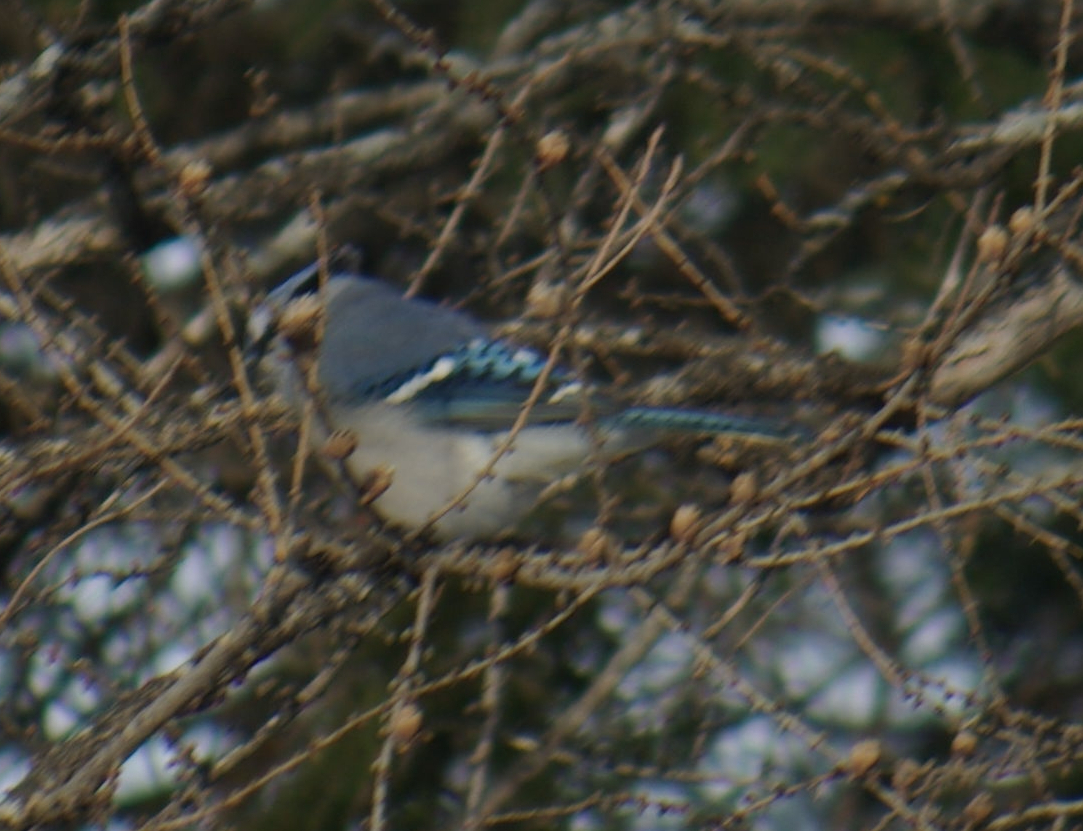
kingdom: Animalia
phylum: Chordata
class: Aves
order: Passeriformes
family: Corvidae
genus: Cyanocitta
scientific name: Cyanocitta cristata
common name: Blue jay
